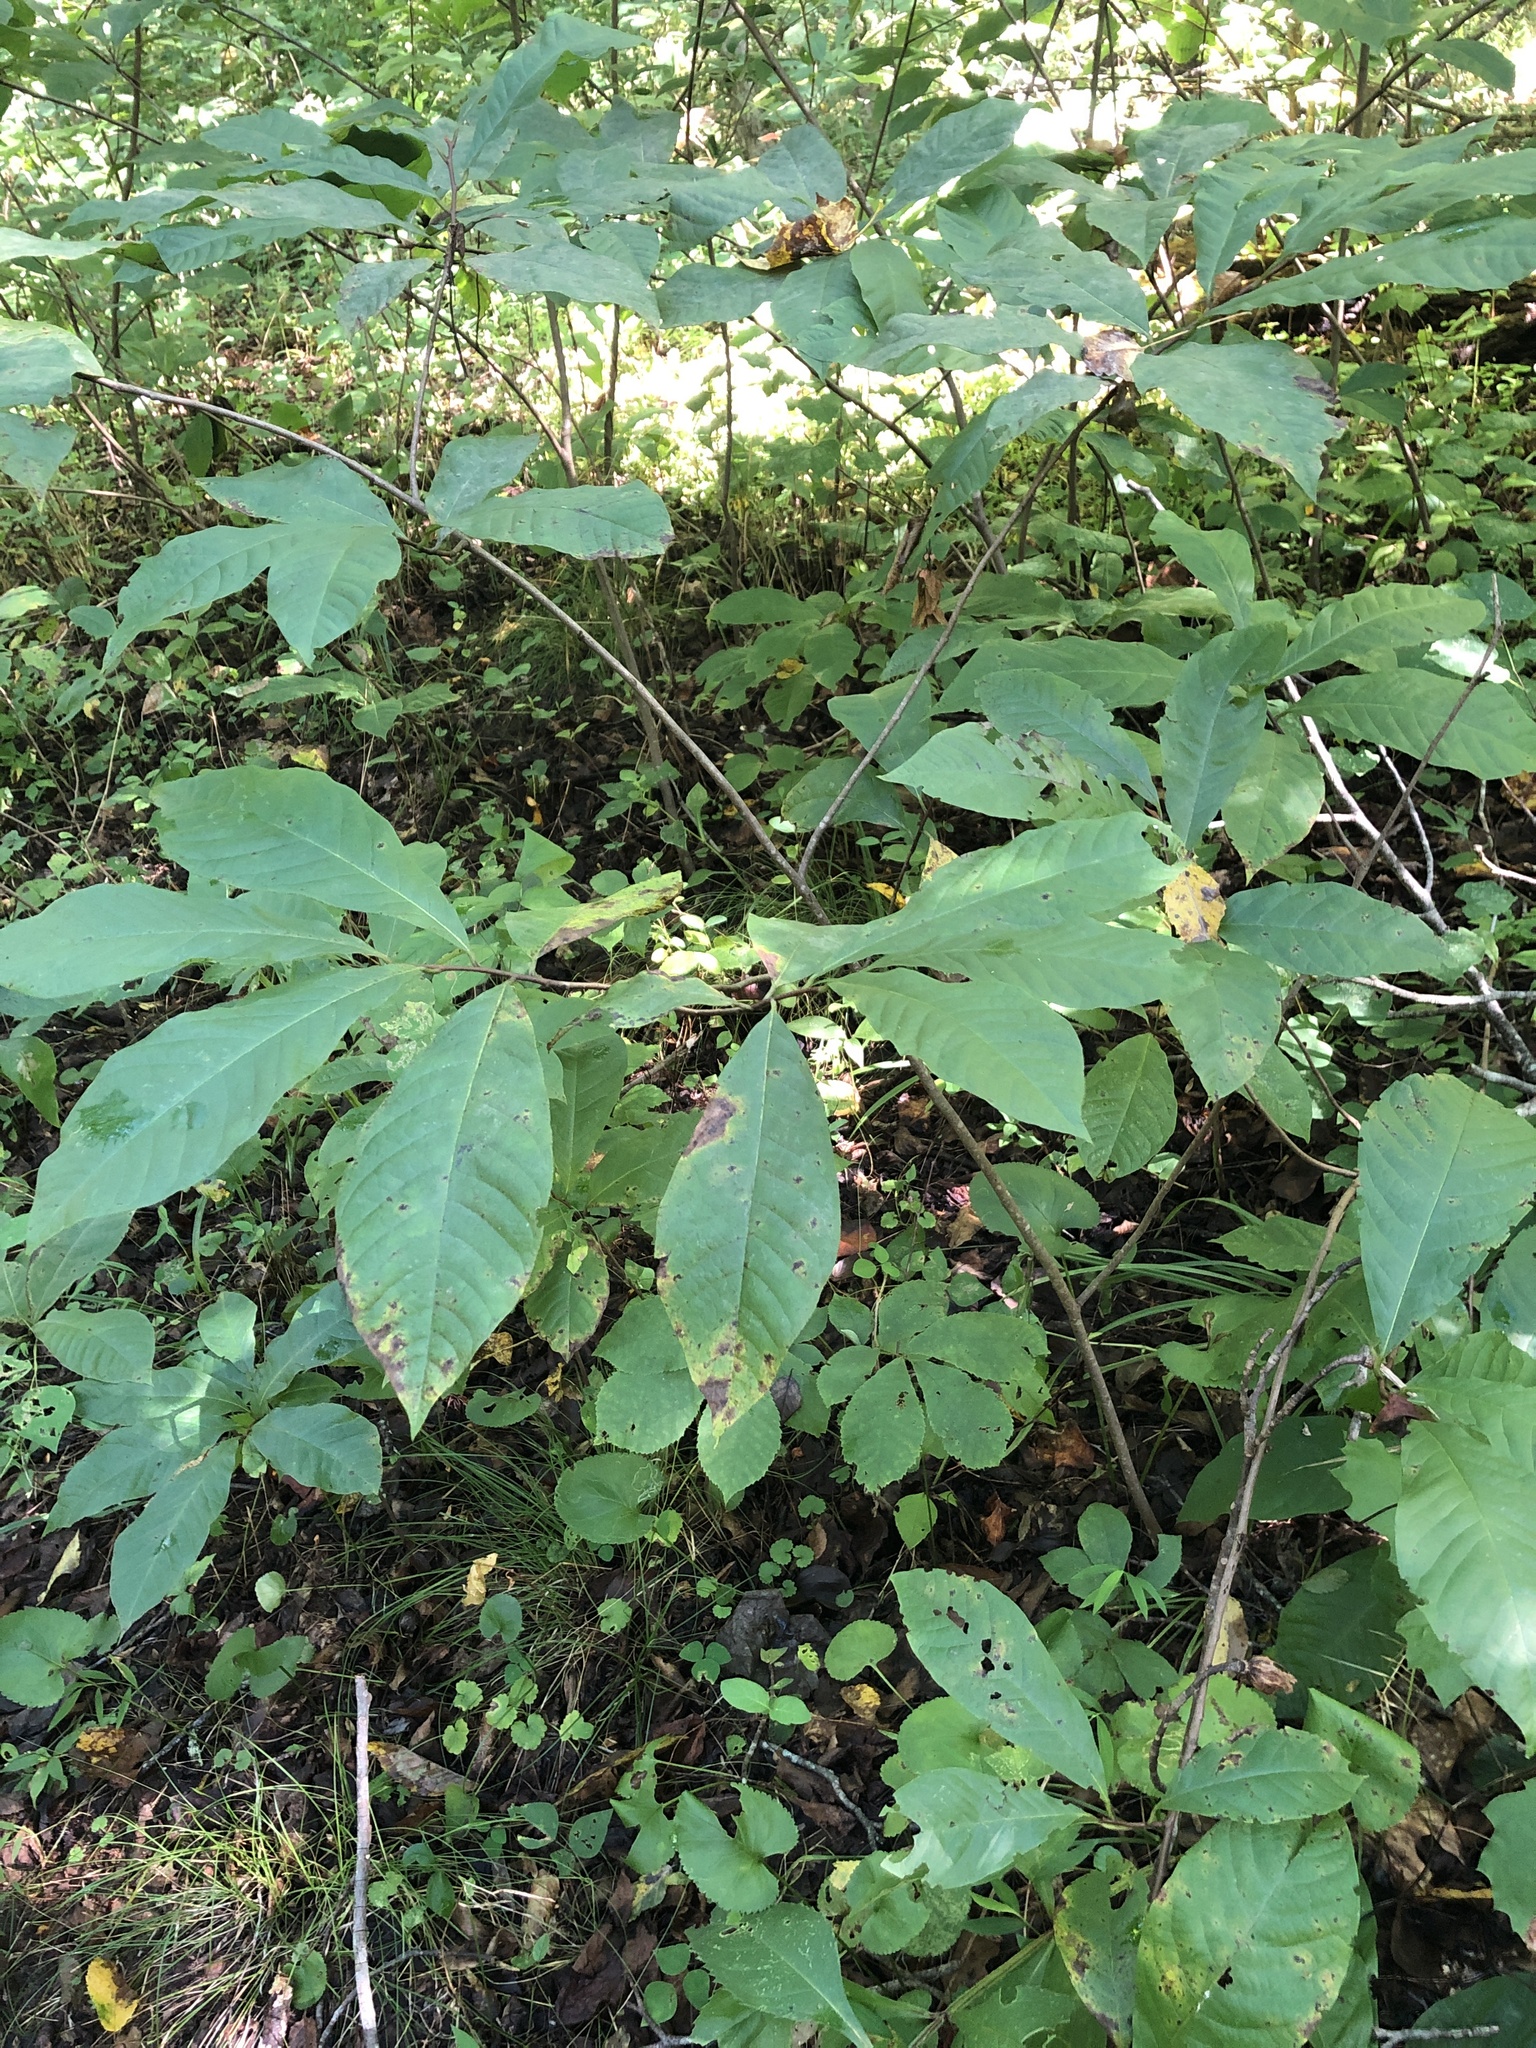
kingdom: Plantae
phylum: Tracheophyta
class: Magnoliopsida
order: Magnoliales
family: Annonaceae
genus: Asimina
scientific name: Asimina triloba
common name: Dog-banana
